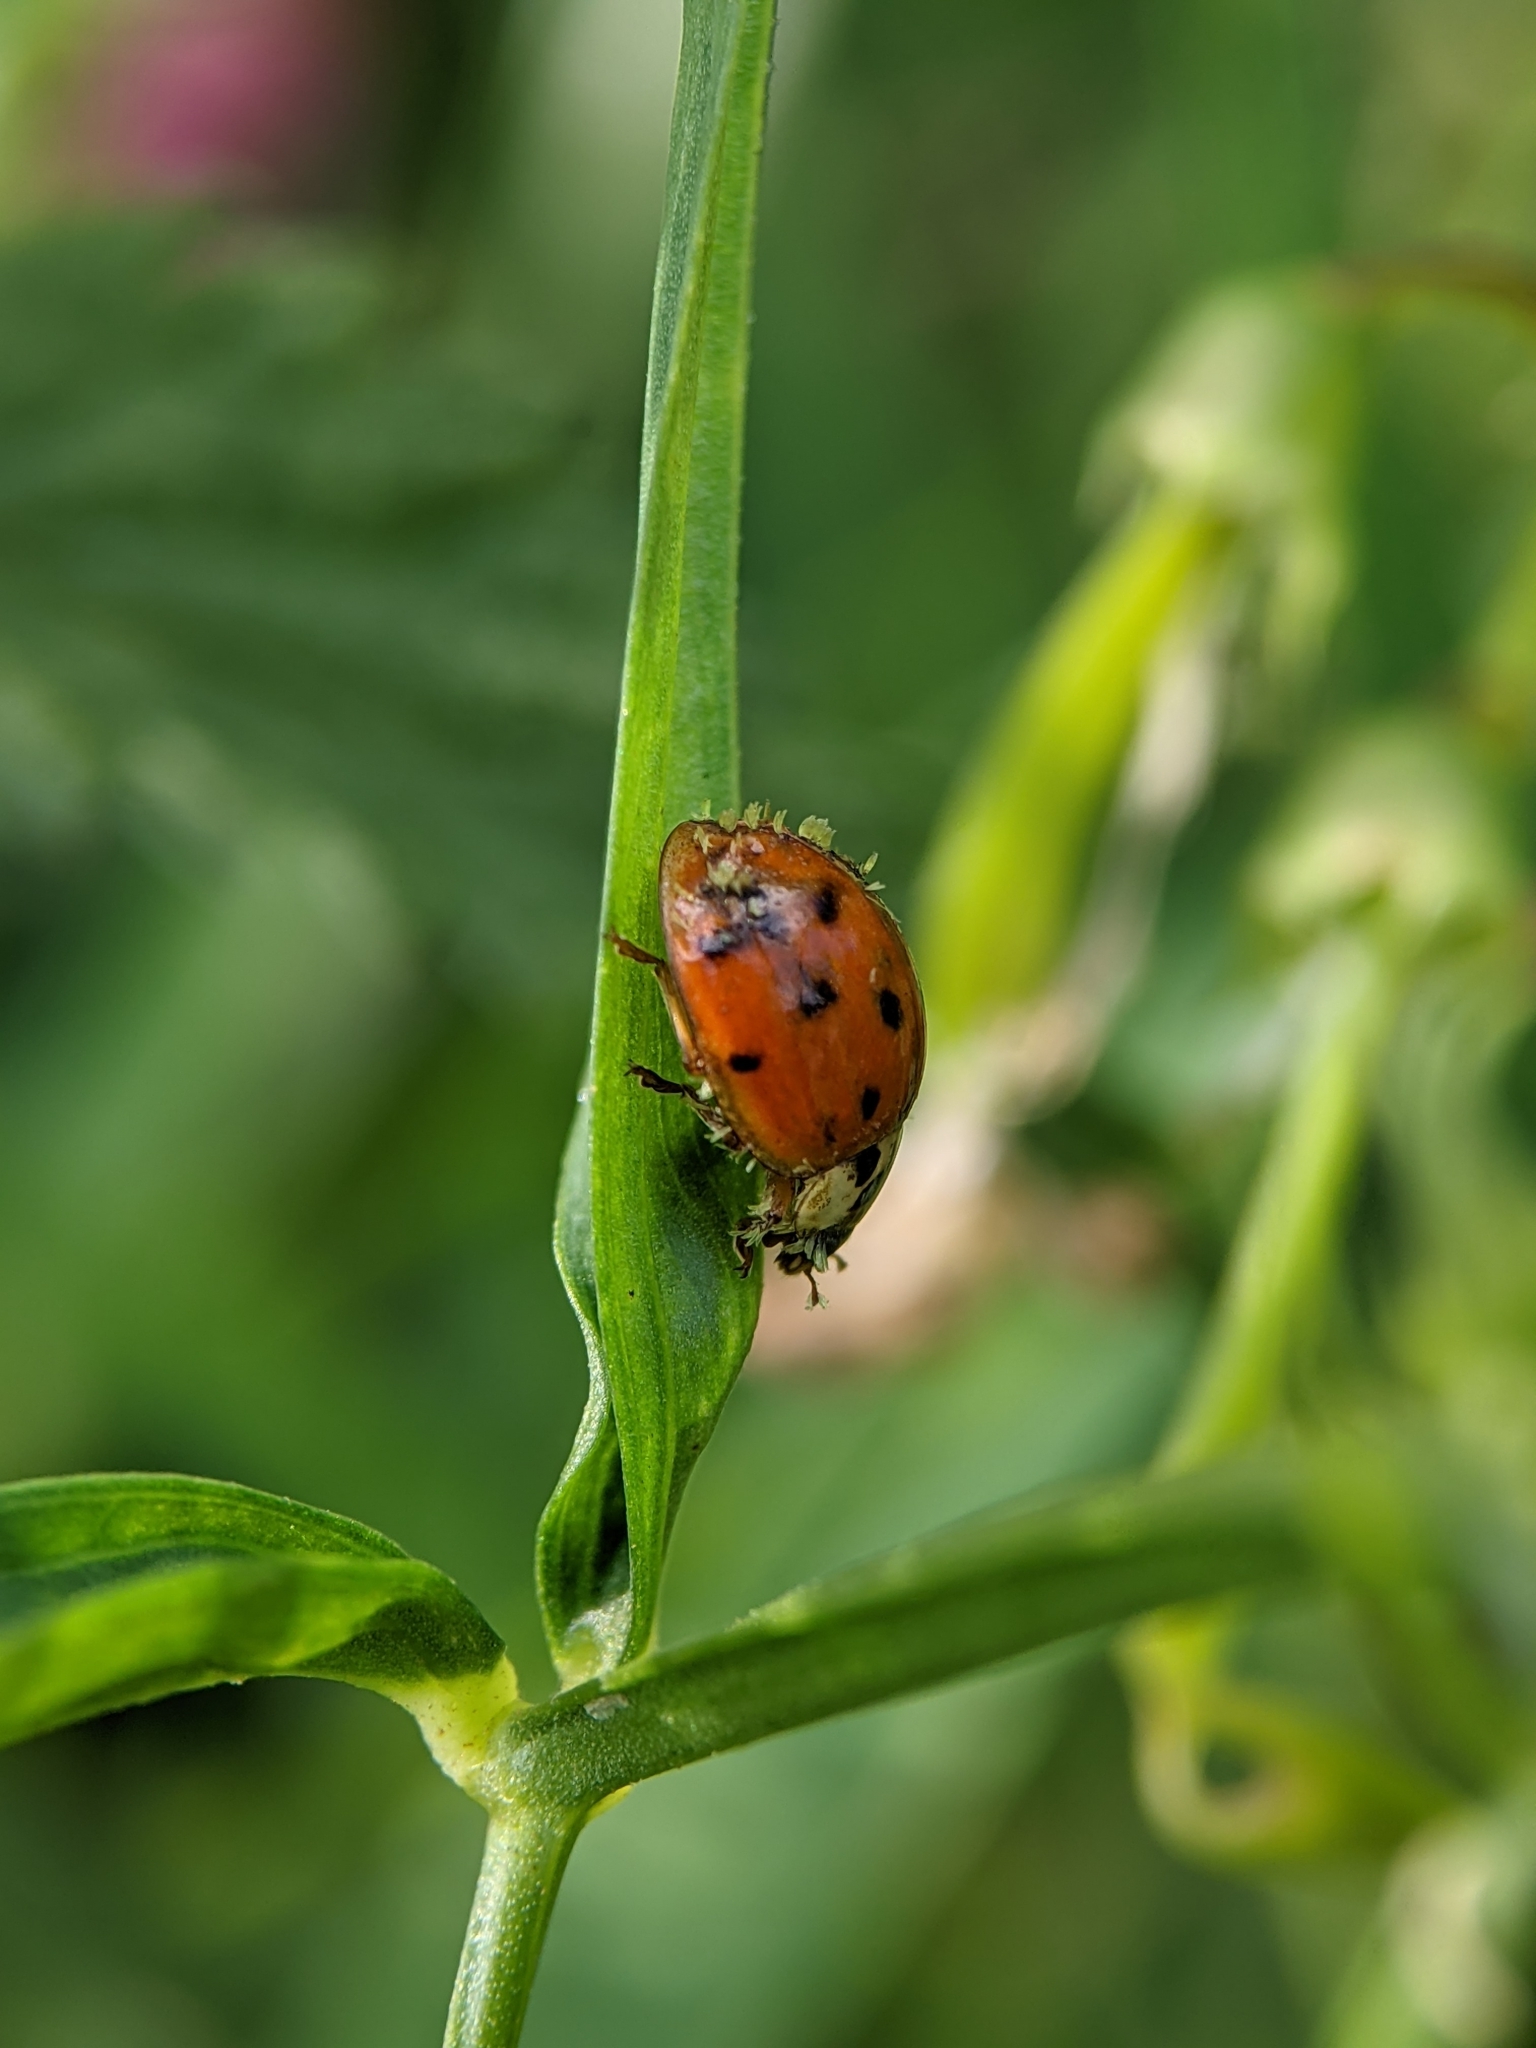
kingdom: Fungi
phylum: Ascomycota
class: Laboulbeniomycetes
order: Laboulbeniales
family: Laboulbeniaceae
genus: Hesperomyces
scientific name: Hesperomyces harmoniae
